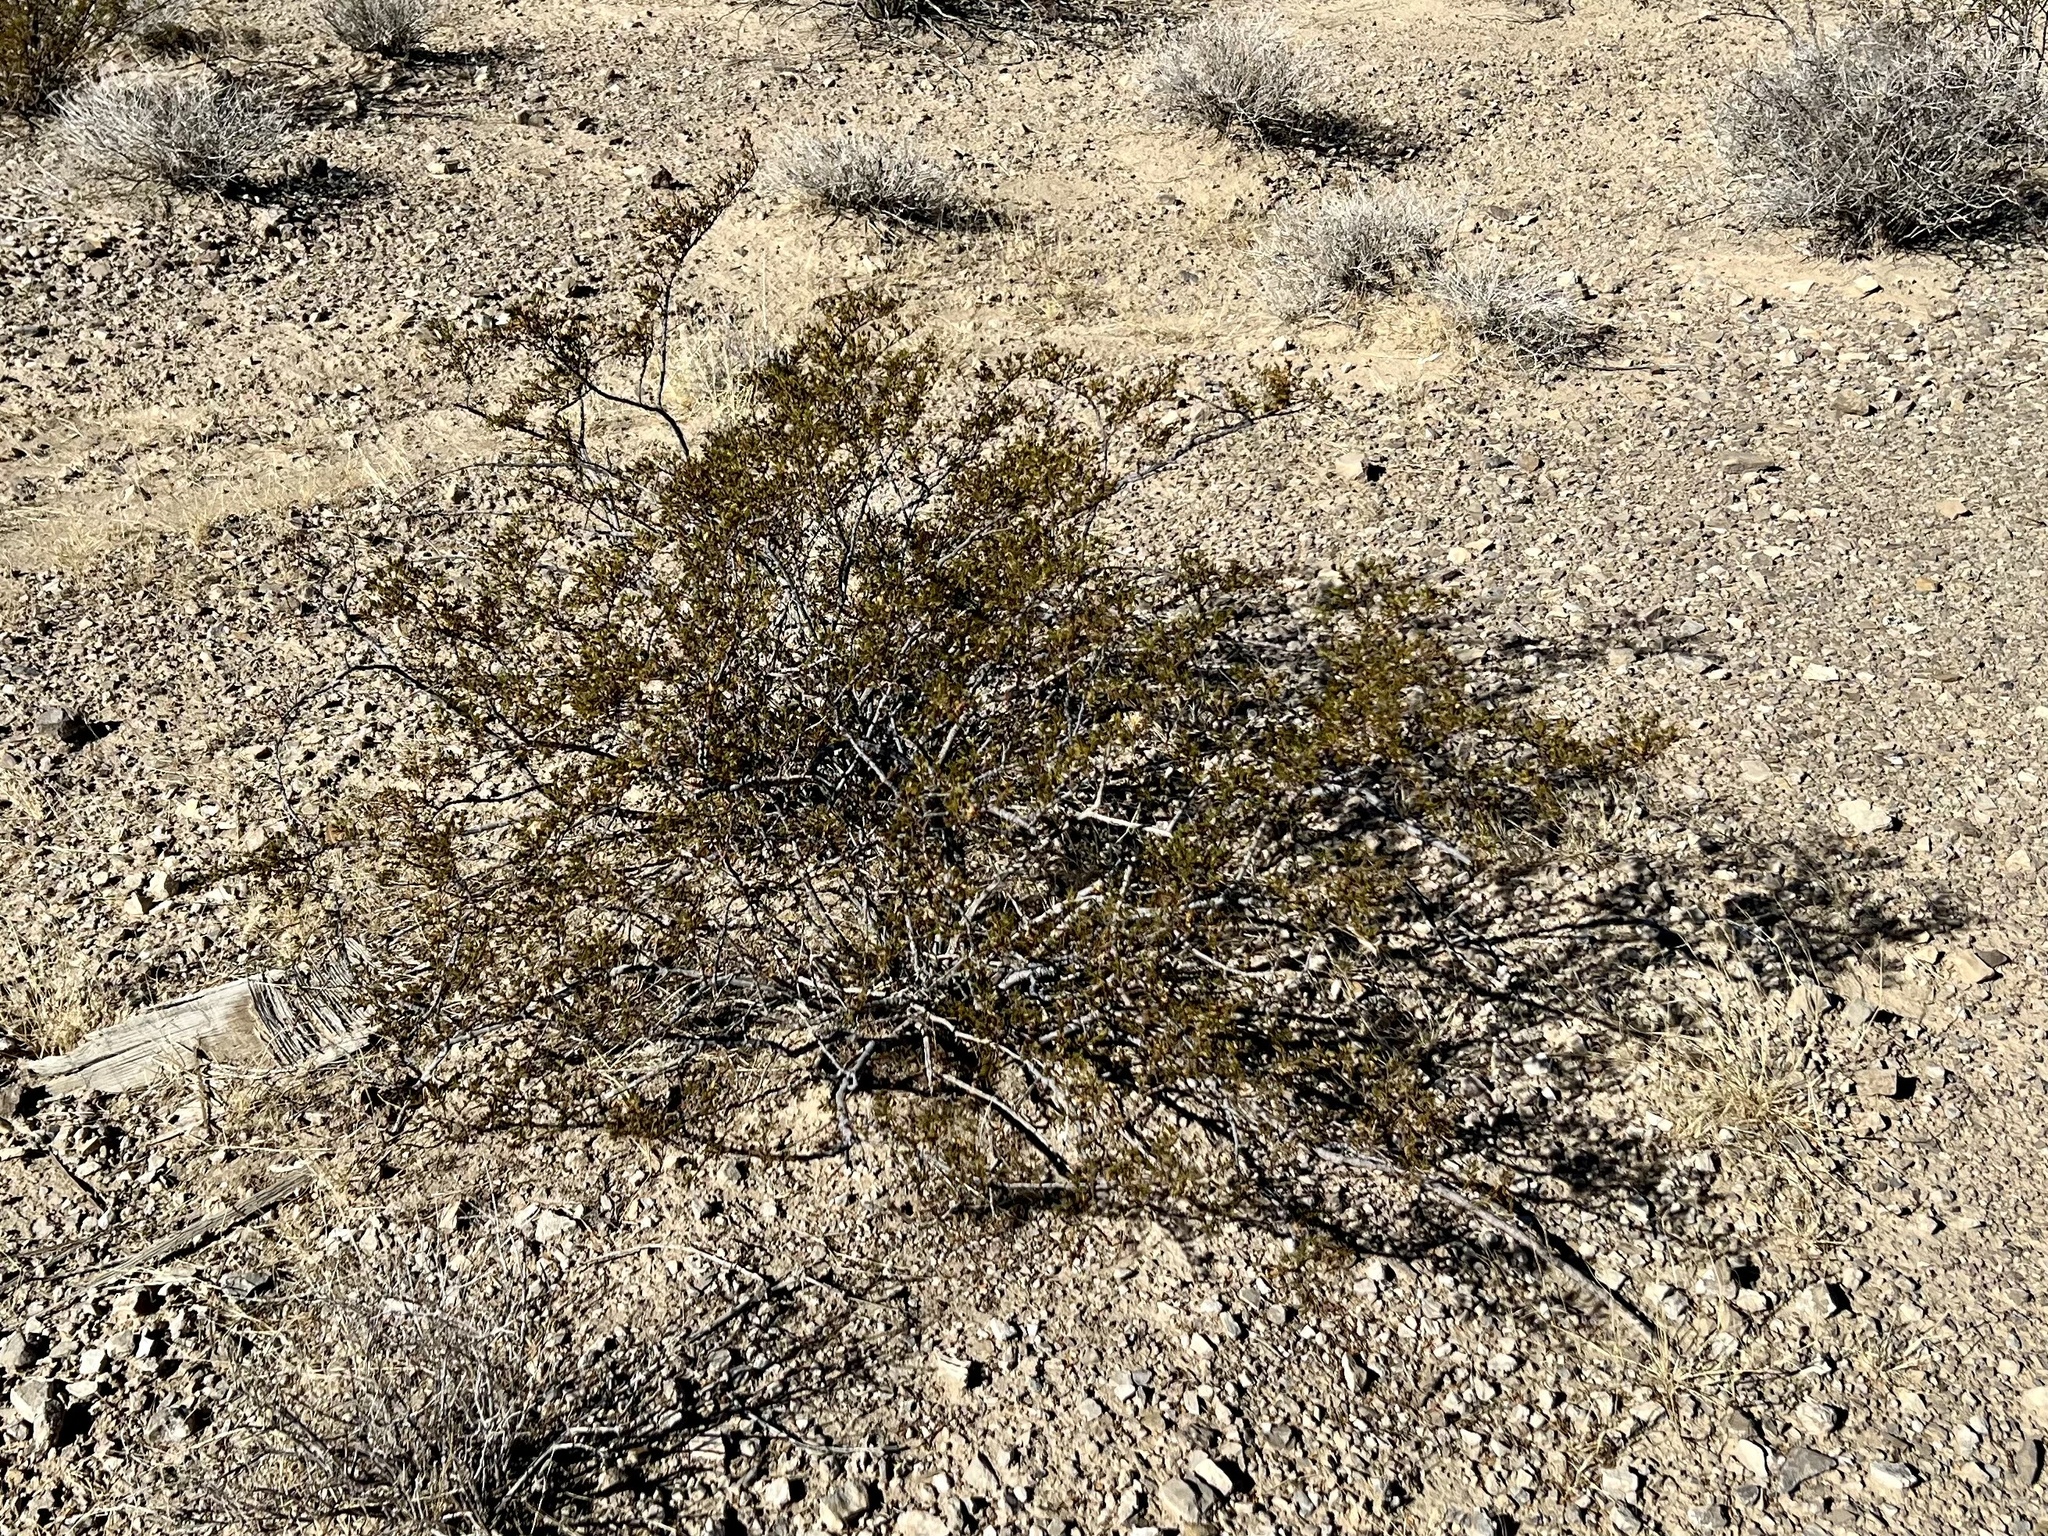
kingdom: Plantae
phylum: Tracheophyta
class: Magnoliopsida
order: Zygophyllales
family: Zygophyllaceae
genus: Larrea
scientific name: Larrea tridentata
